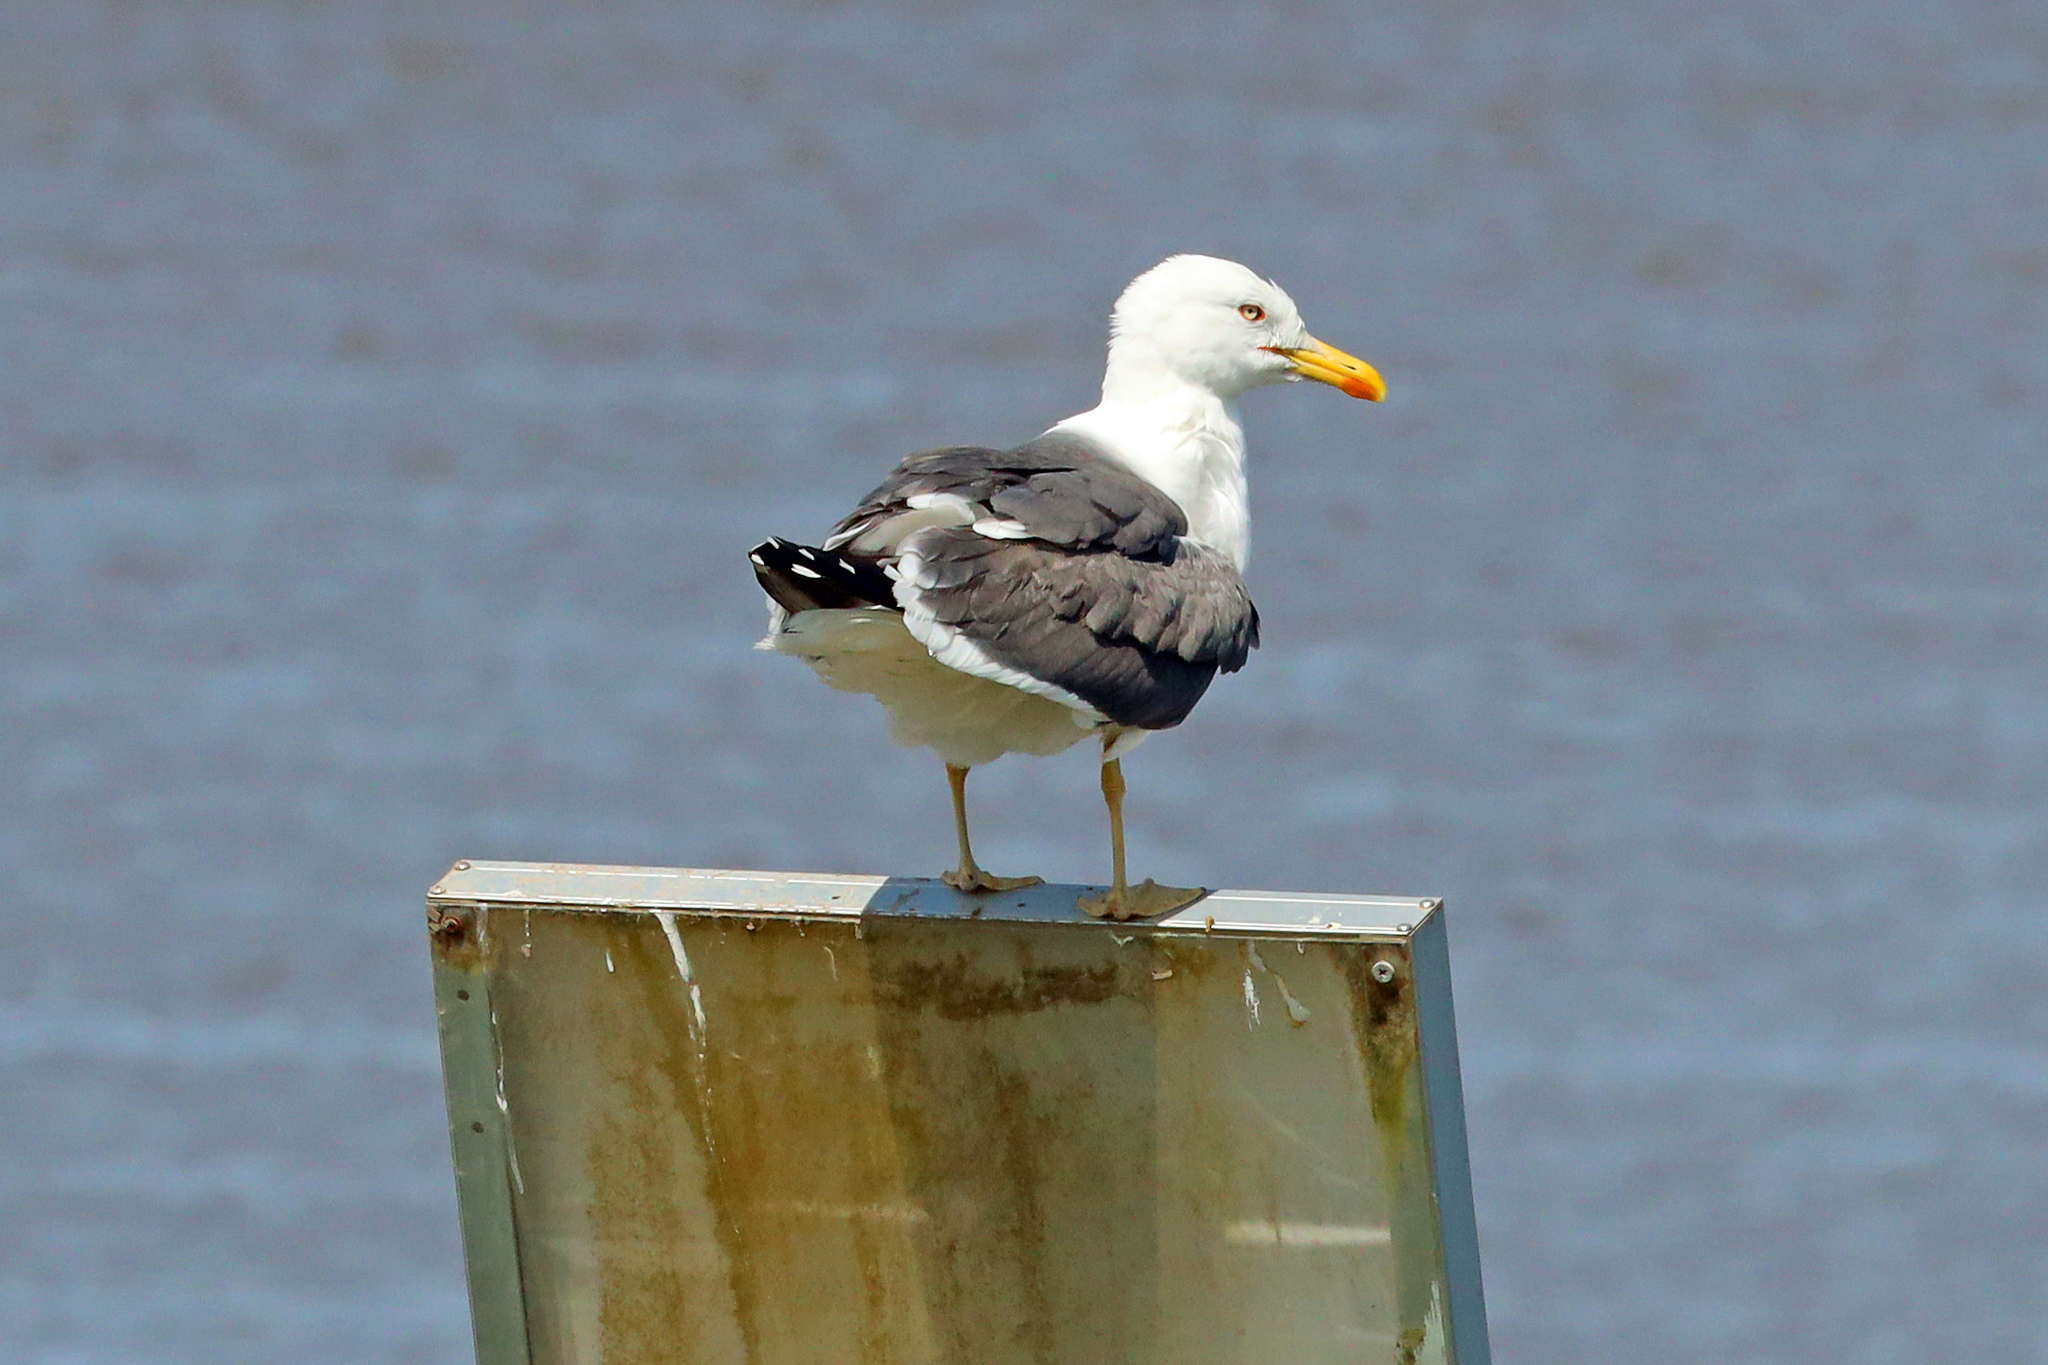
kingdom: Animalia
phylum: Chordata
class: Aves
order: Charadriiformes
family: Laridae
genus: Larus
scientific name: Larus fuscus
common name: Lesser black-backed gull
